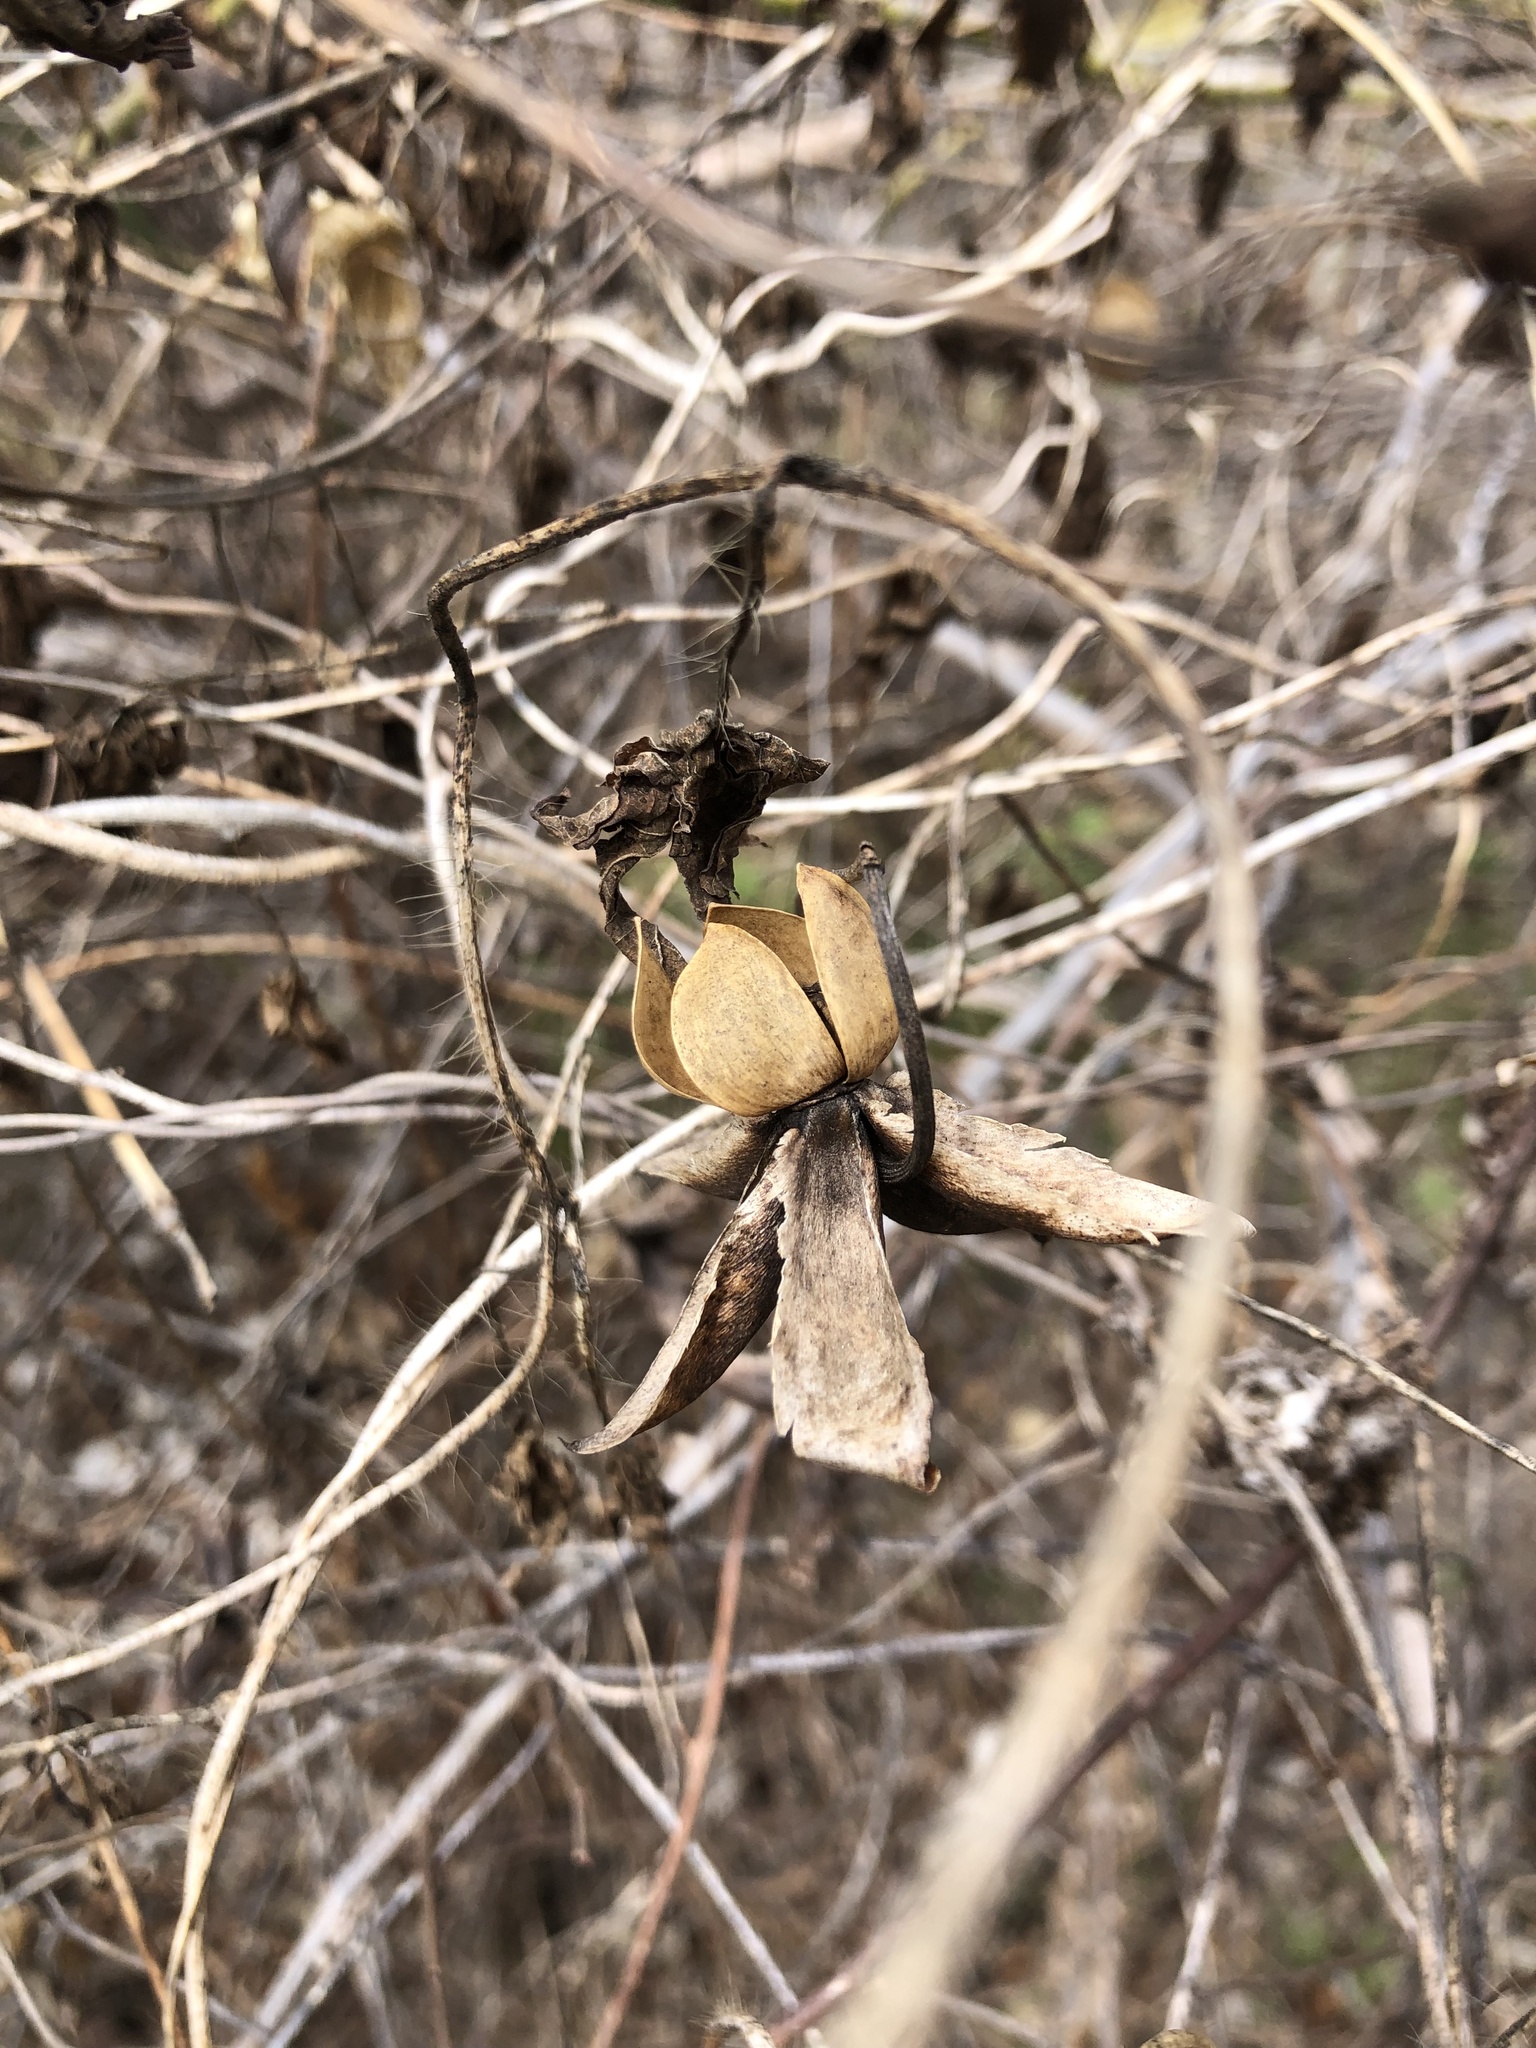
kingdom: Plantae
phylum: Tracheophyta
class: Magnoliopsida
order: Solanales
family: Convolvulaceae
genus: Distimake
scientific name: Distimake dissectus
